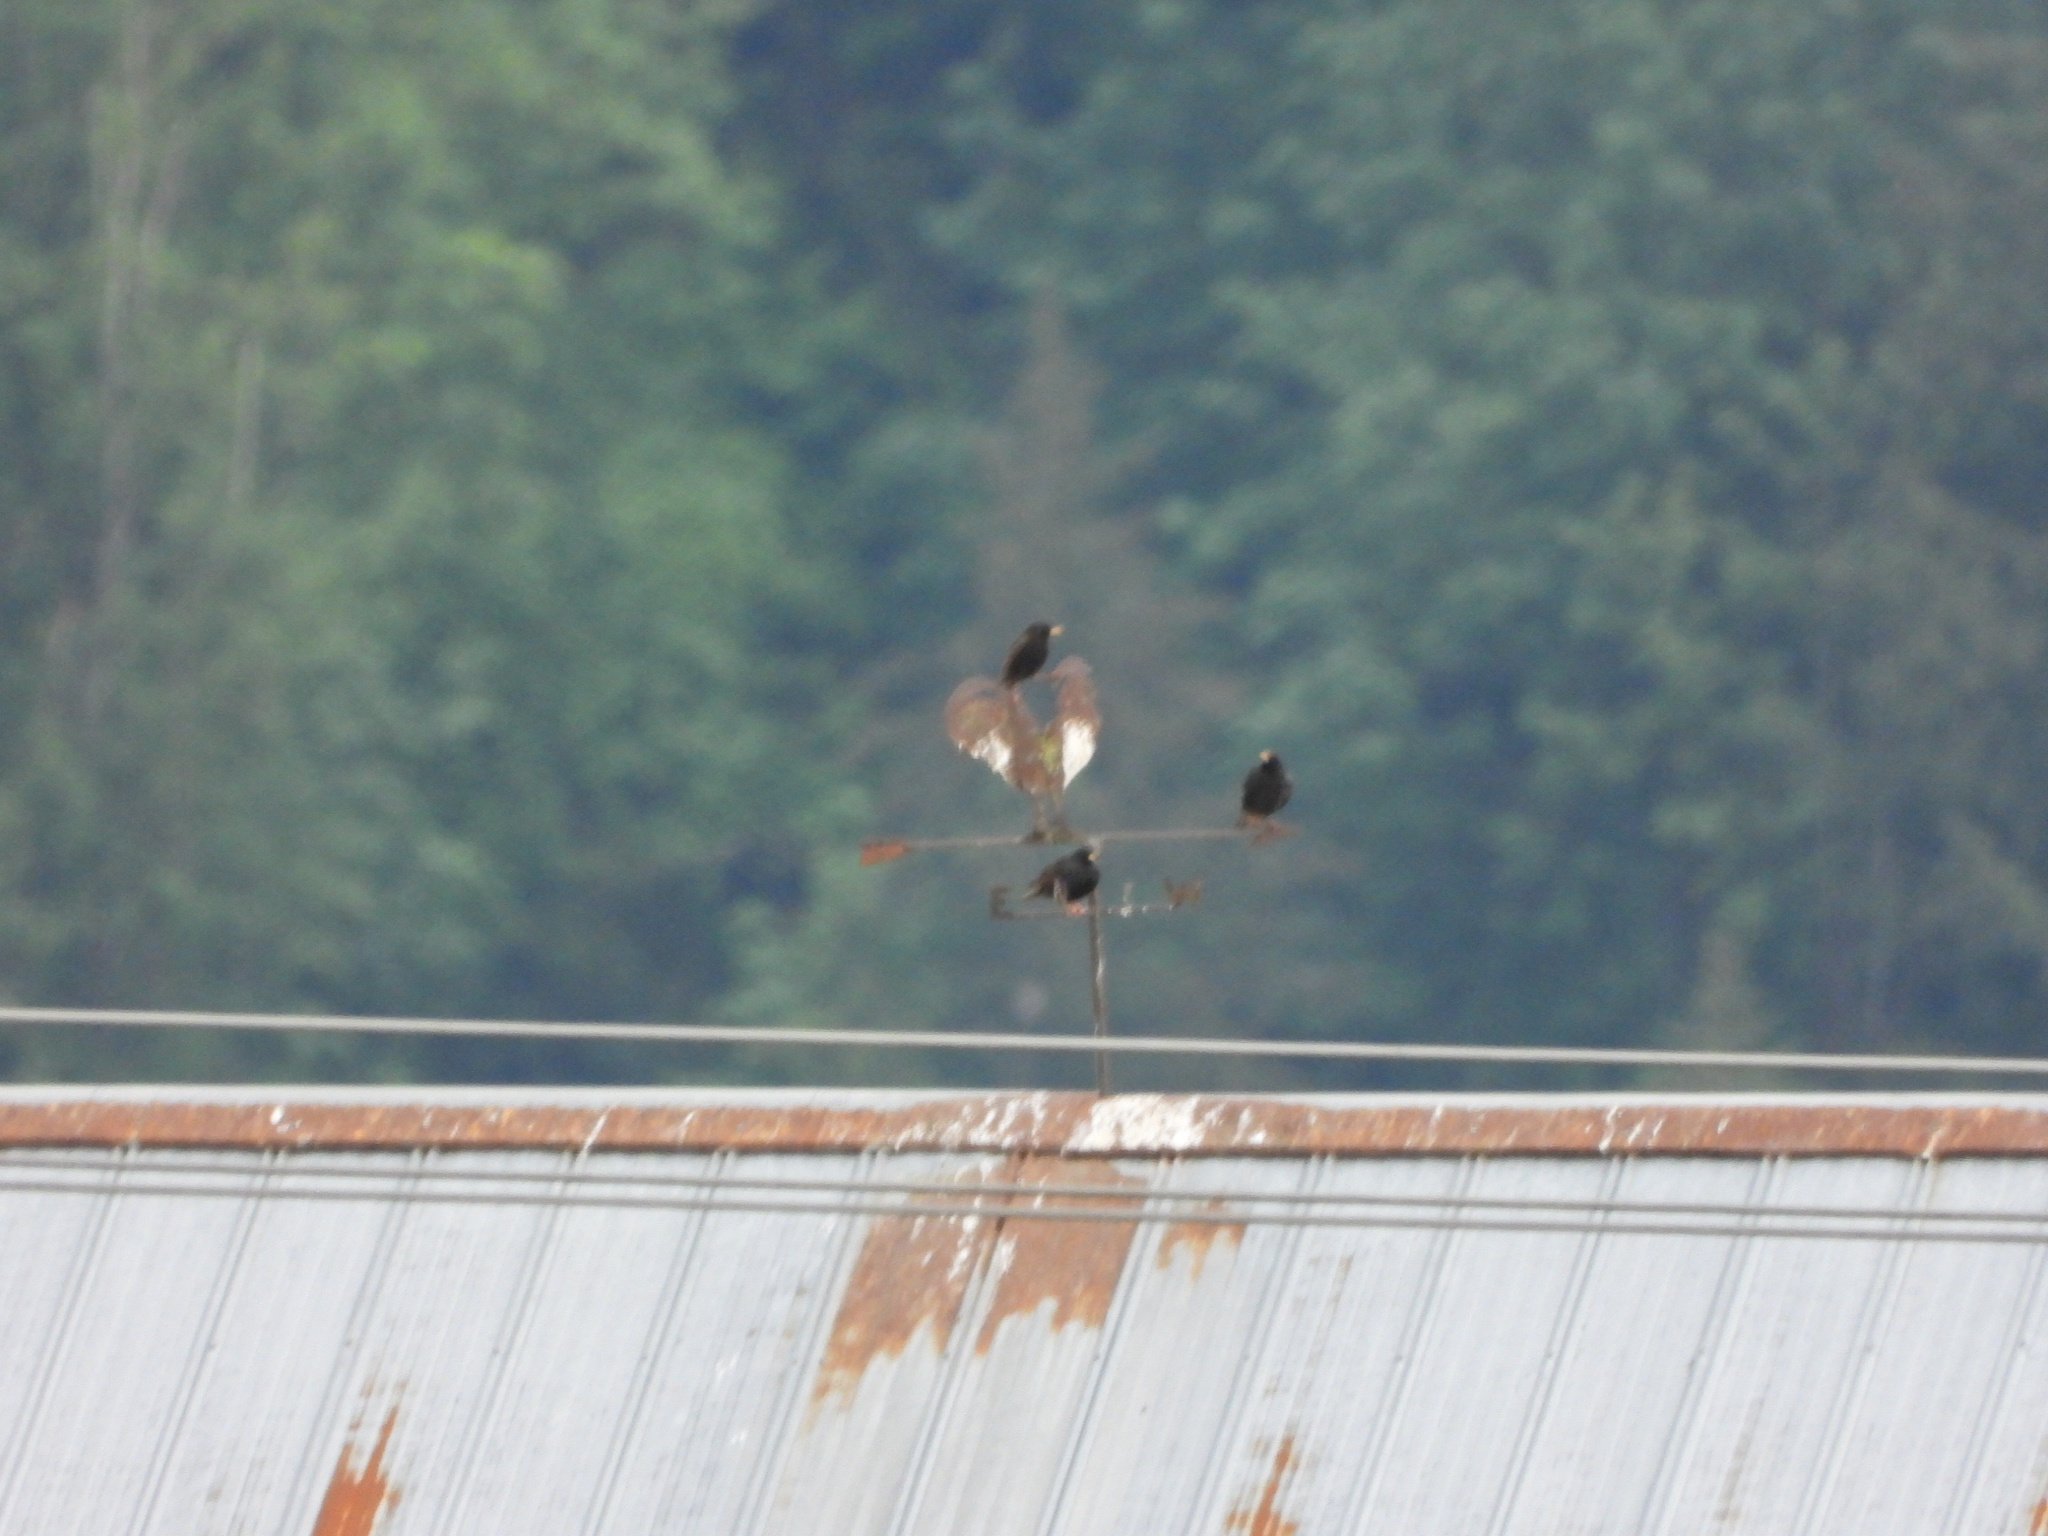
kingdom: Animalia
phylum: Chordata
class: Aves
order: Passeriformes
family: Sturnidae
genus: Sturnus
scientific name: Sturnus vulgaris
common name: Common starling
